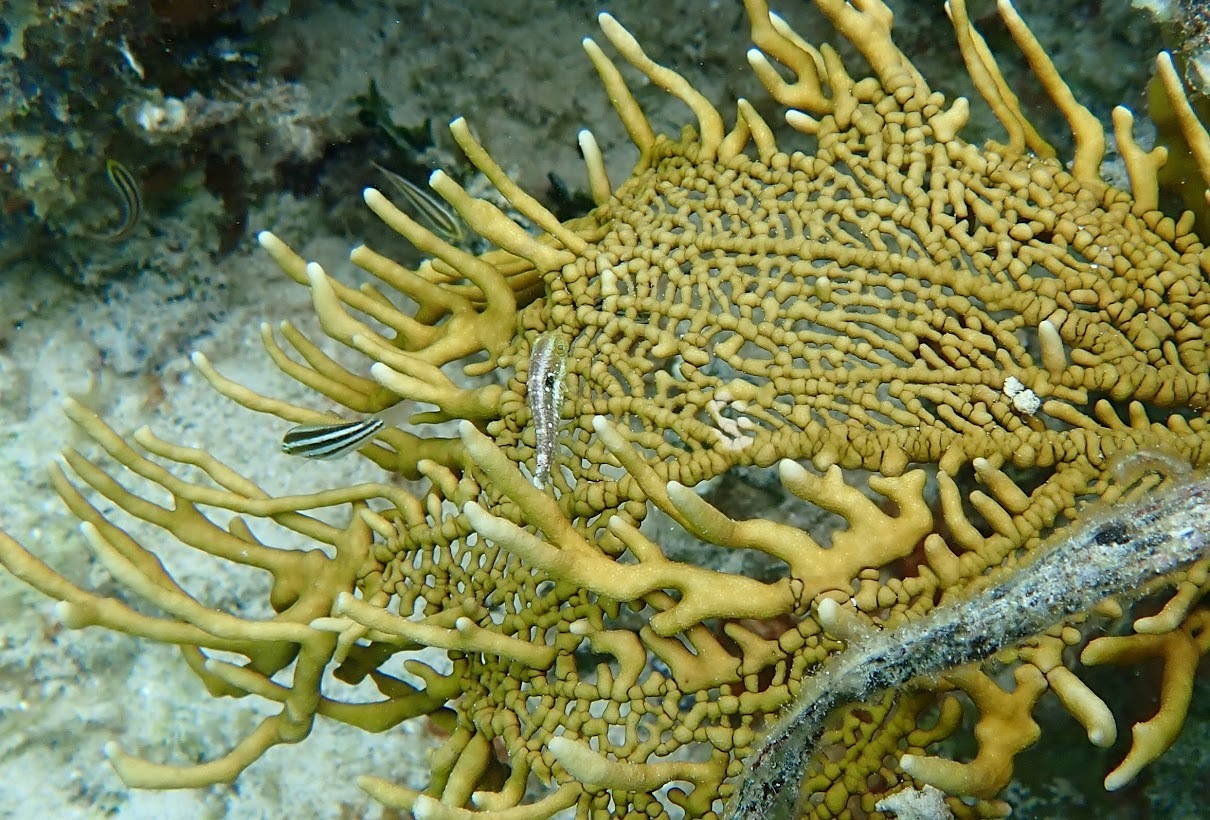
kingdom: Animalia
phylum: Cnidaria
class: Hydrozoa
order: Anthoathecata
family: Milleporidae
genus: Millepora
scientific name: Millepora alcicornis
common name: Branching fire coral
